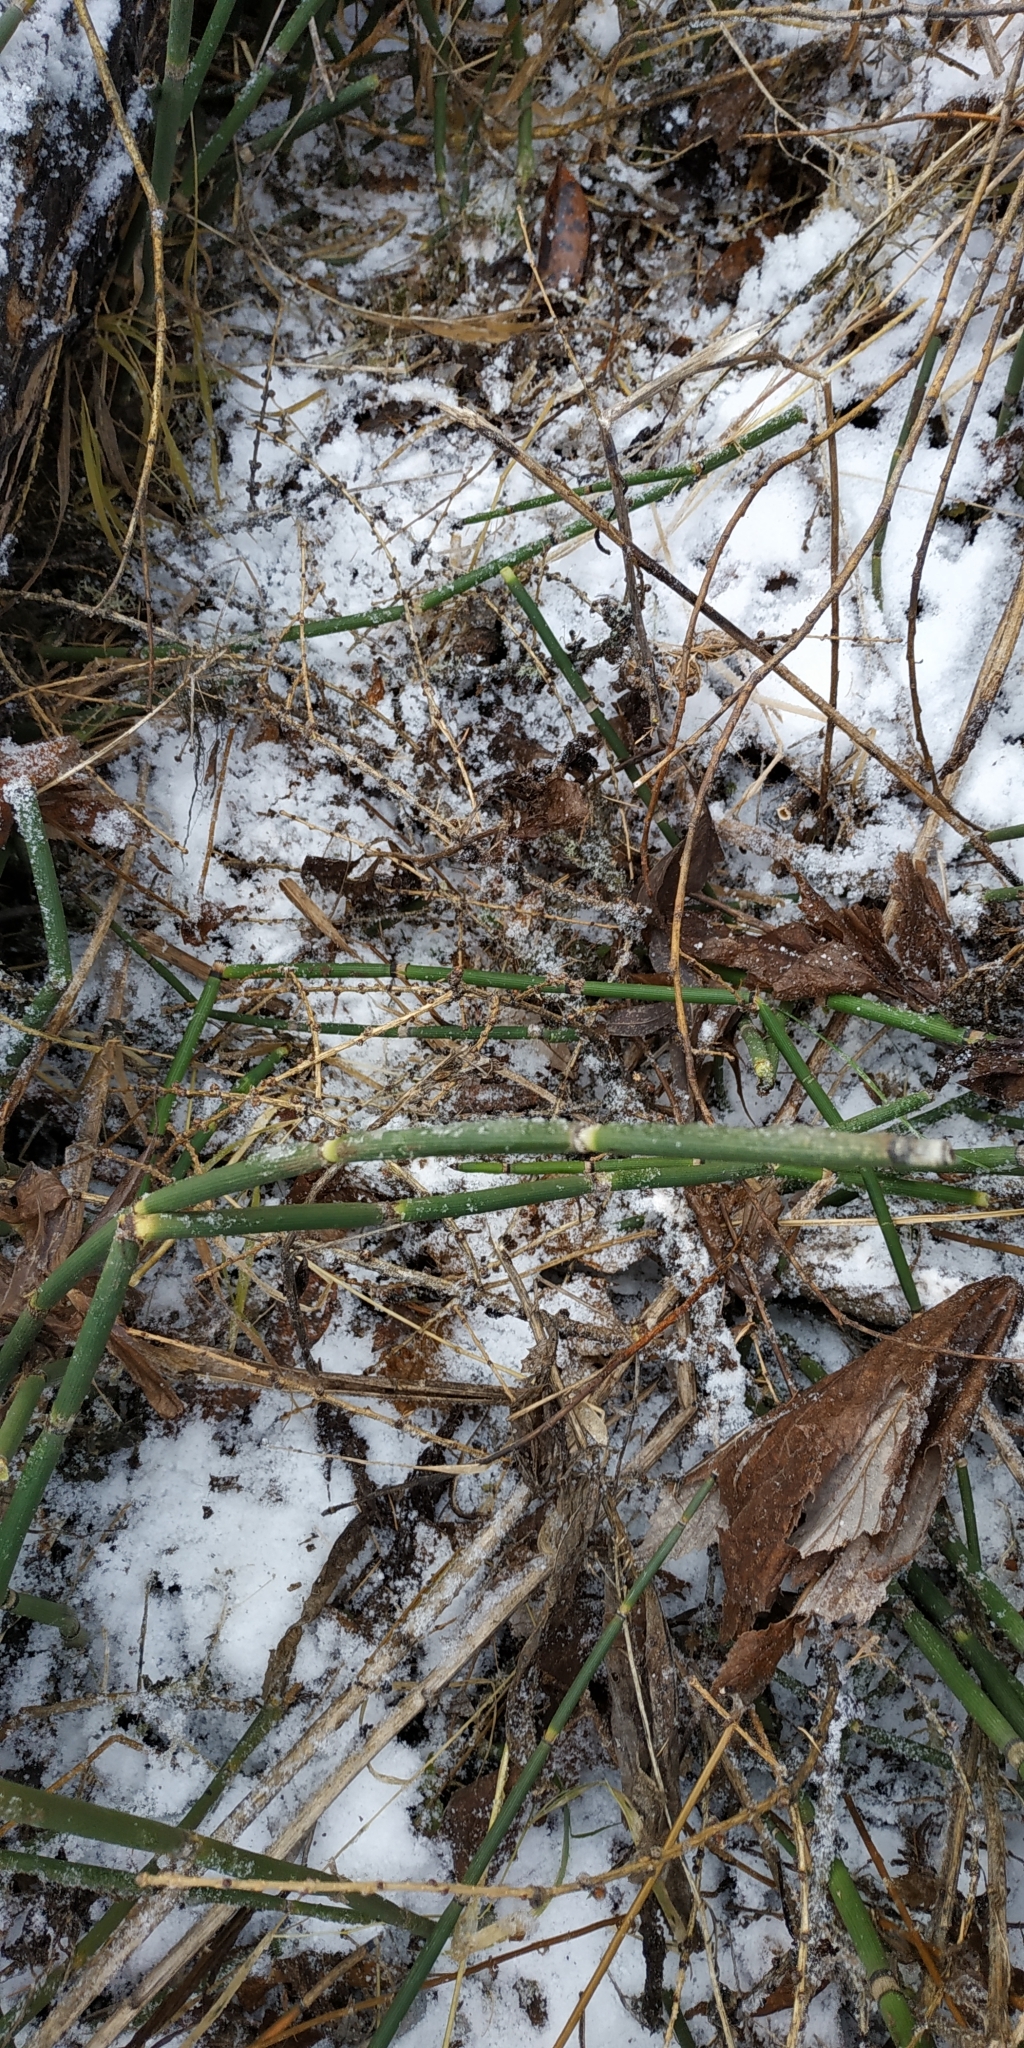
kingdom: Plantae
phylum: Tracheophyta
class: Polypodiopsida
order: Equisetales
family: Equisetaceae
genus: Equisetum
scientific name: Equisetum hyemale
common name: Rough horsetail
